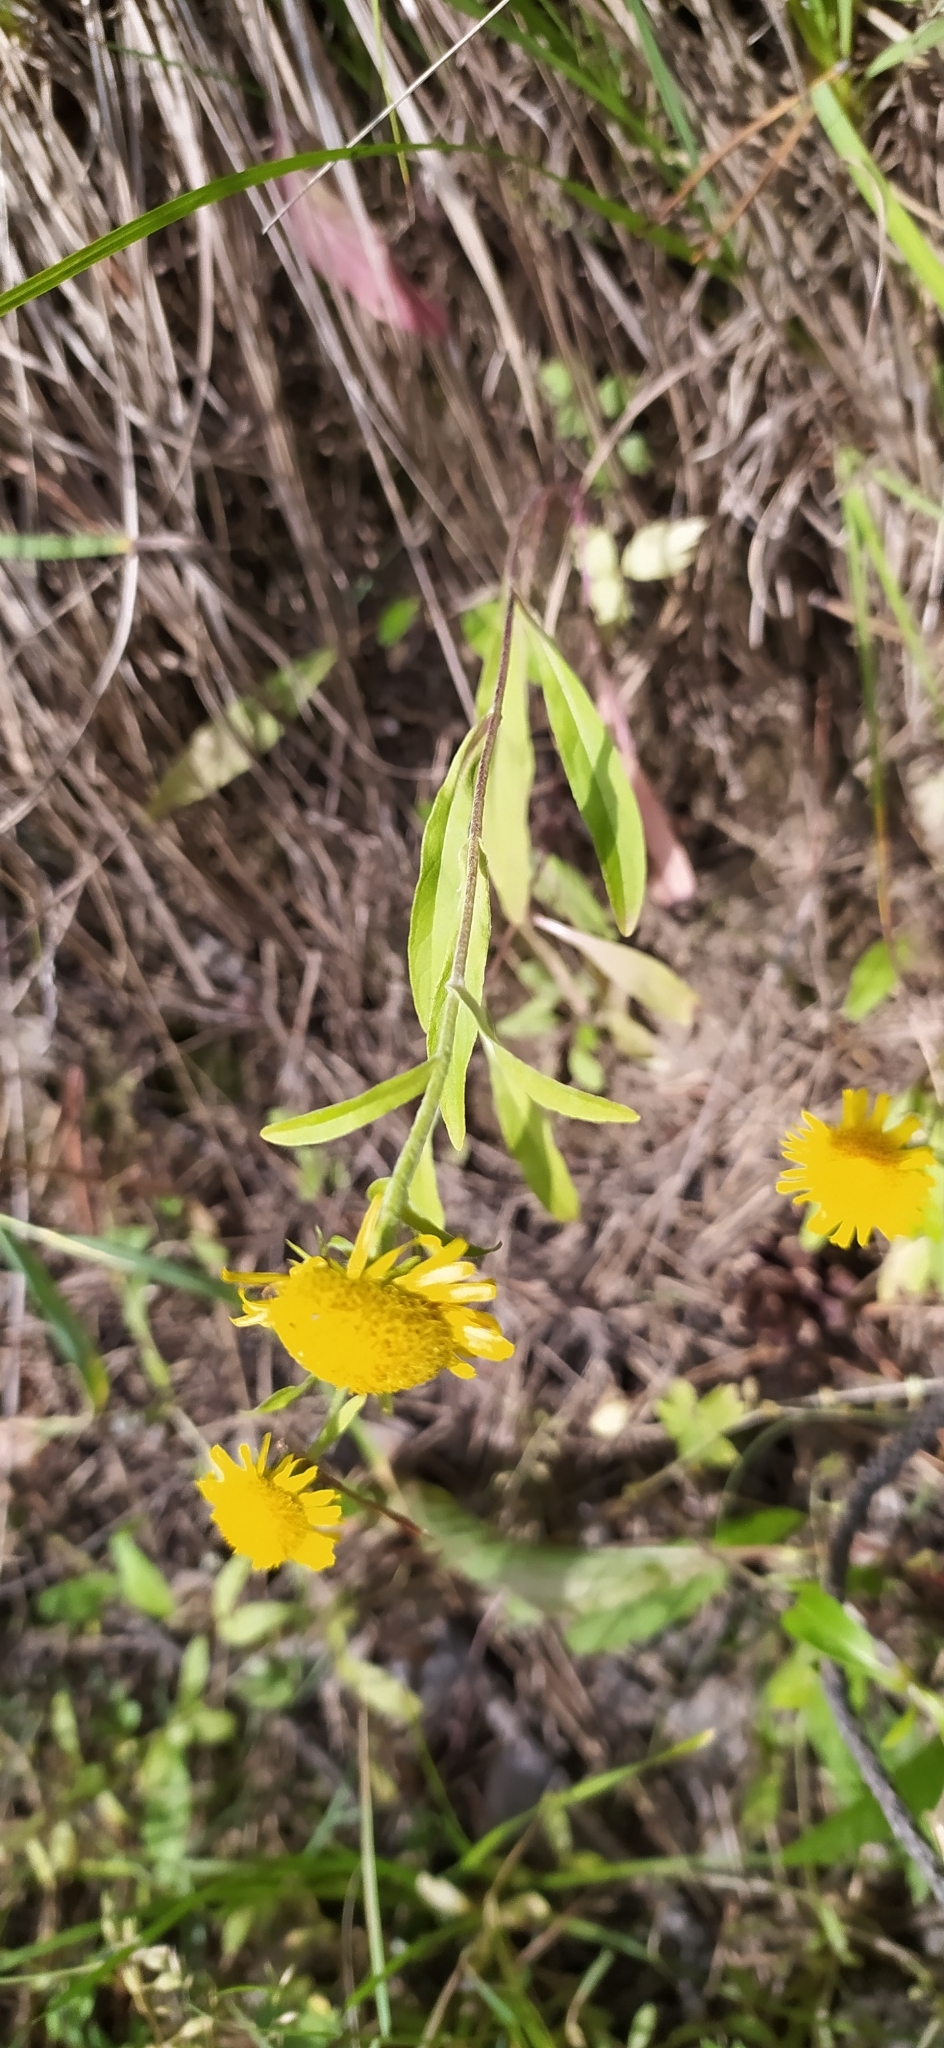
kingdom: Plantae
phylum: Tracheophyta
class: Magnoliopsida
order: Asterales
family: Asteraceae
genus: Pentanema
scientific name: Pentanema britannicum
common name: British elecampane
